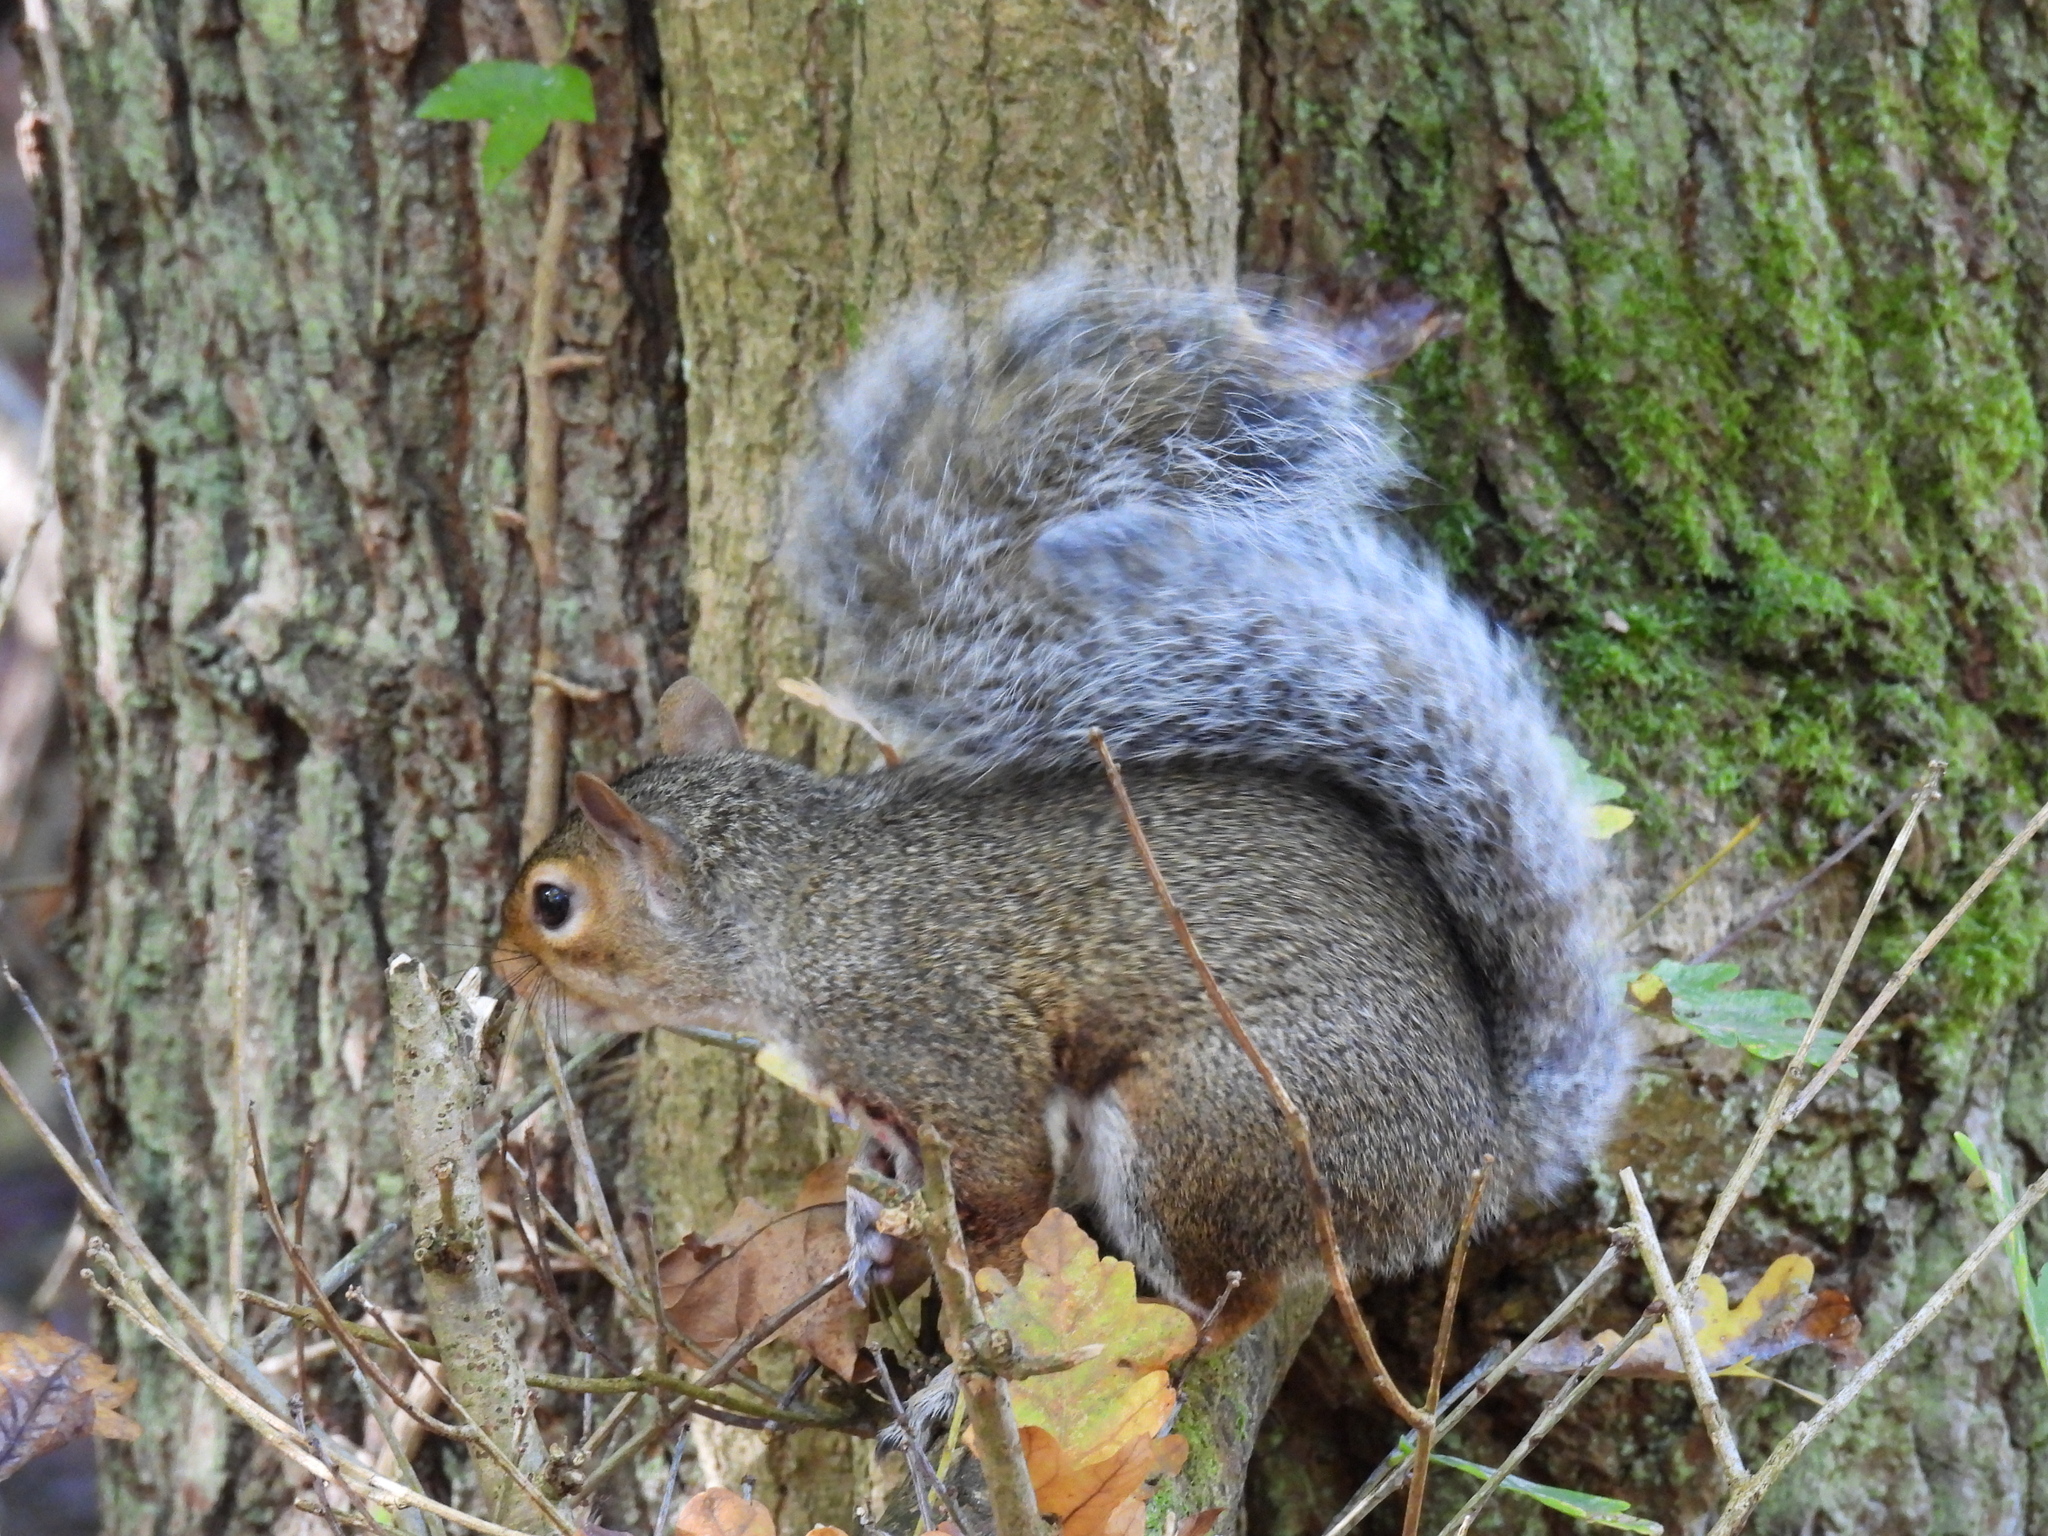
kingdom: Animalia
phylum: Chordata
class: Mammalia
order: Rodentia
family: Sciuridae
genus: Sciurus
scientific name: Sciurus carolinensis
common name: Eastern gray squirrel
